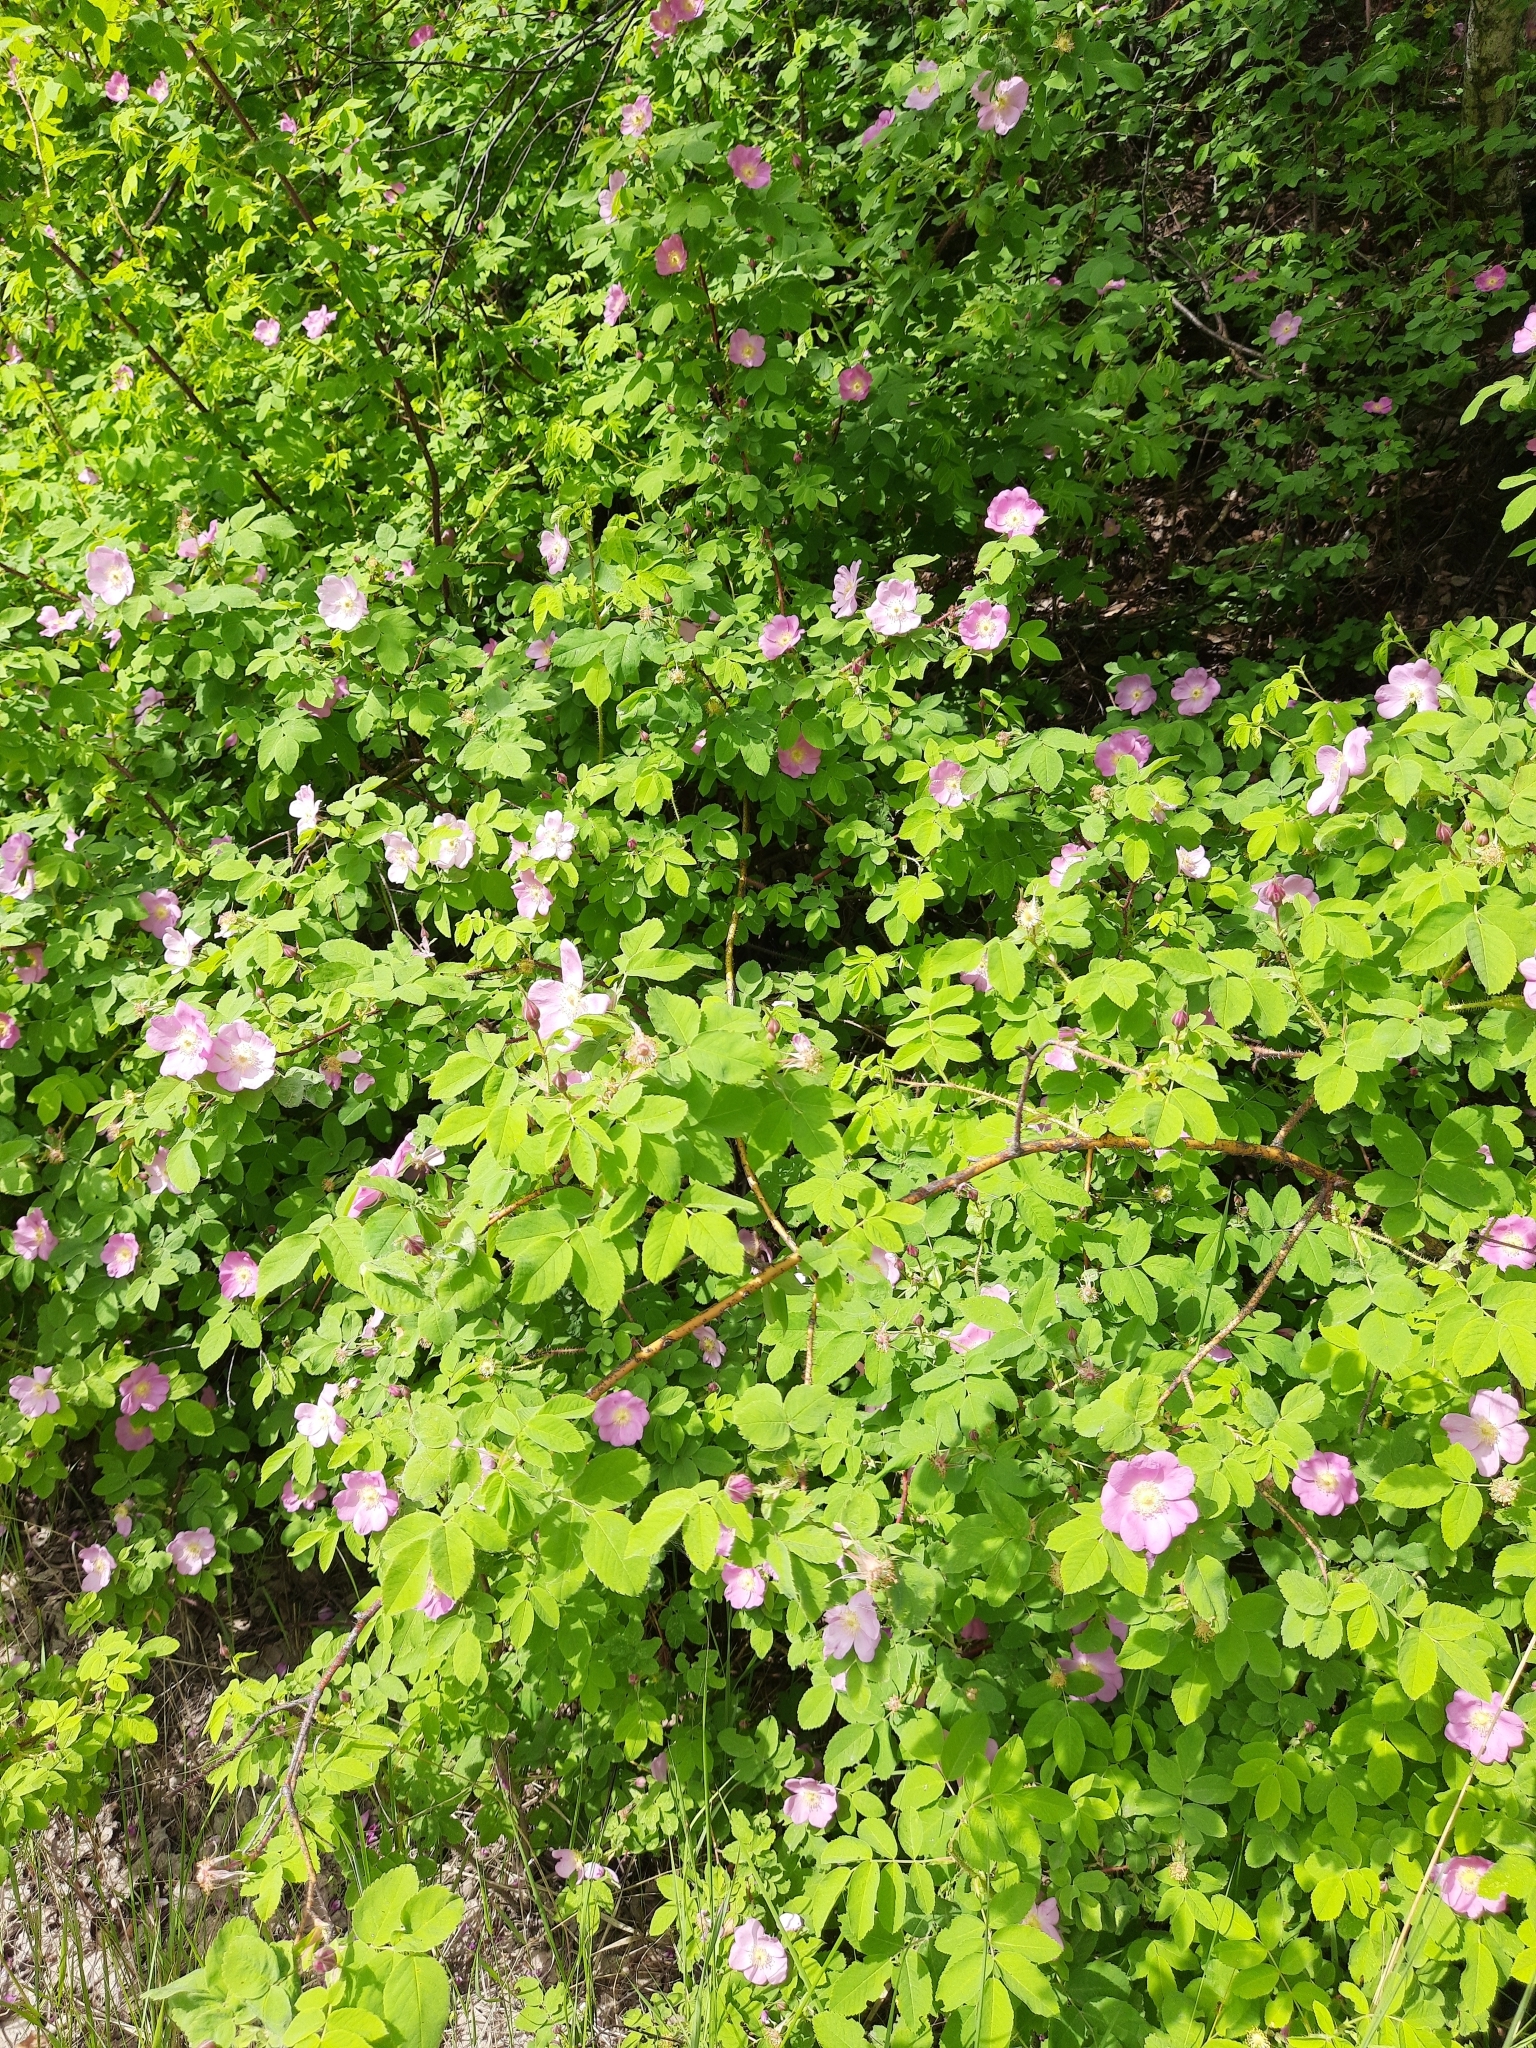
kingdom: Plantae
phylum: Tracheophyta
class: Magnoliopsida
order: Rosales
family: Rosaceae
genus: Rosa
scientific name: Rosa acicularis
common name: Prickly rose
